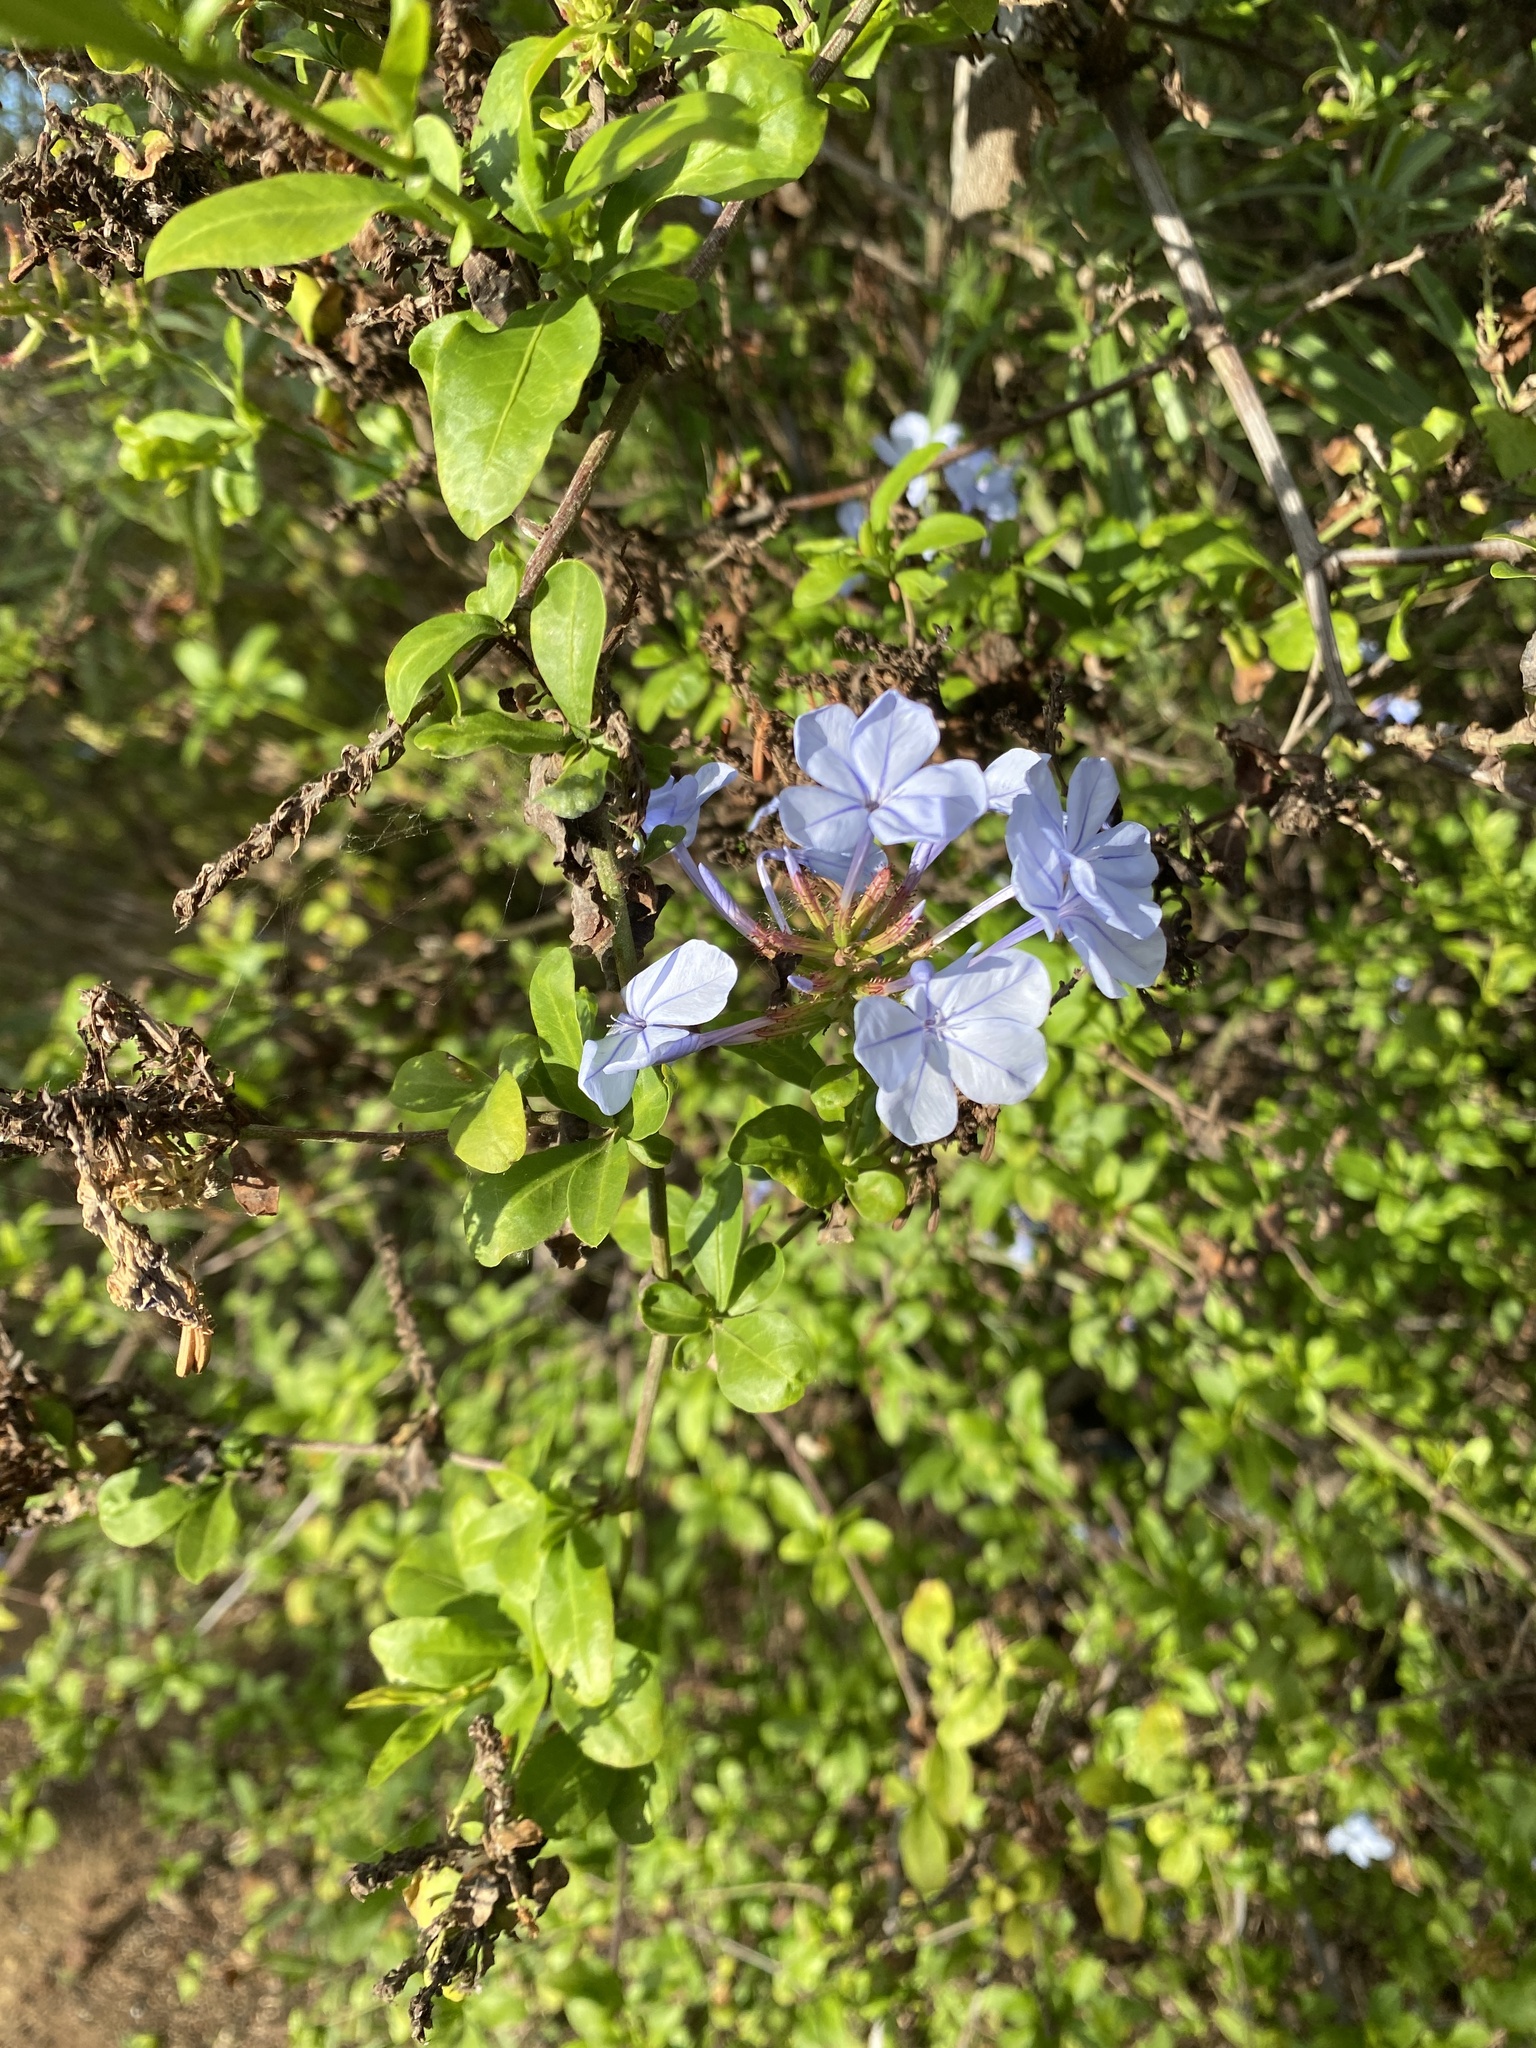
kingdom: Plantae
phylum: Tracheophyta
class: Magnoliopsida
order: Caryophyllales
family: Plumbaginaceae
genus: Plumbago
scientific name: Plumbago auriculata
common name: Cape leadwort
